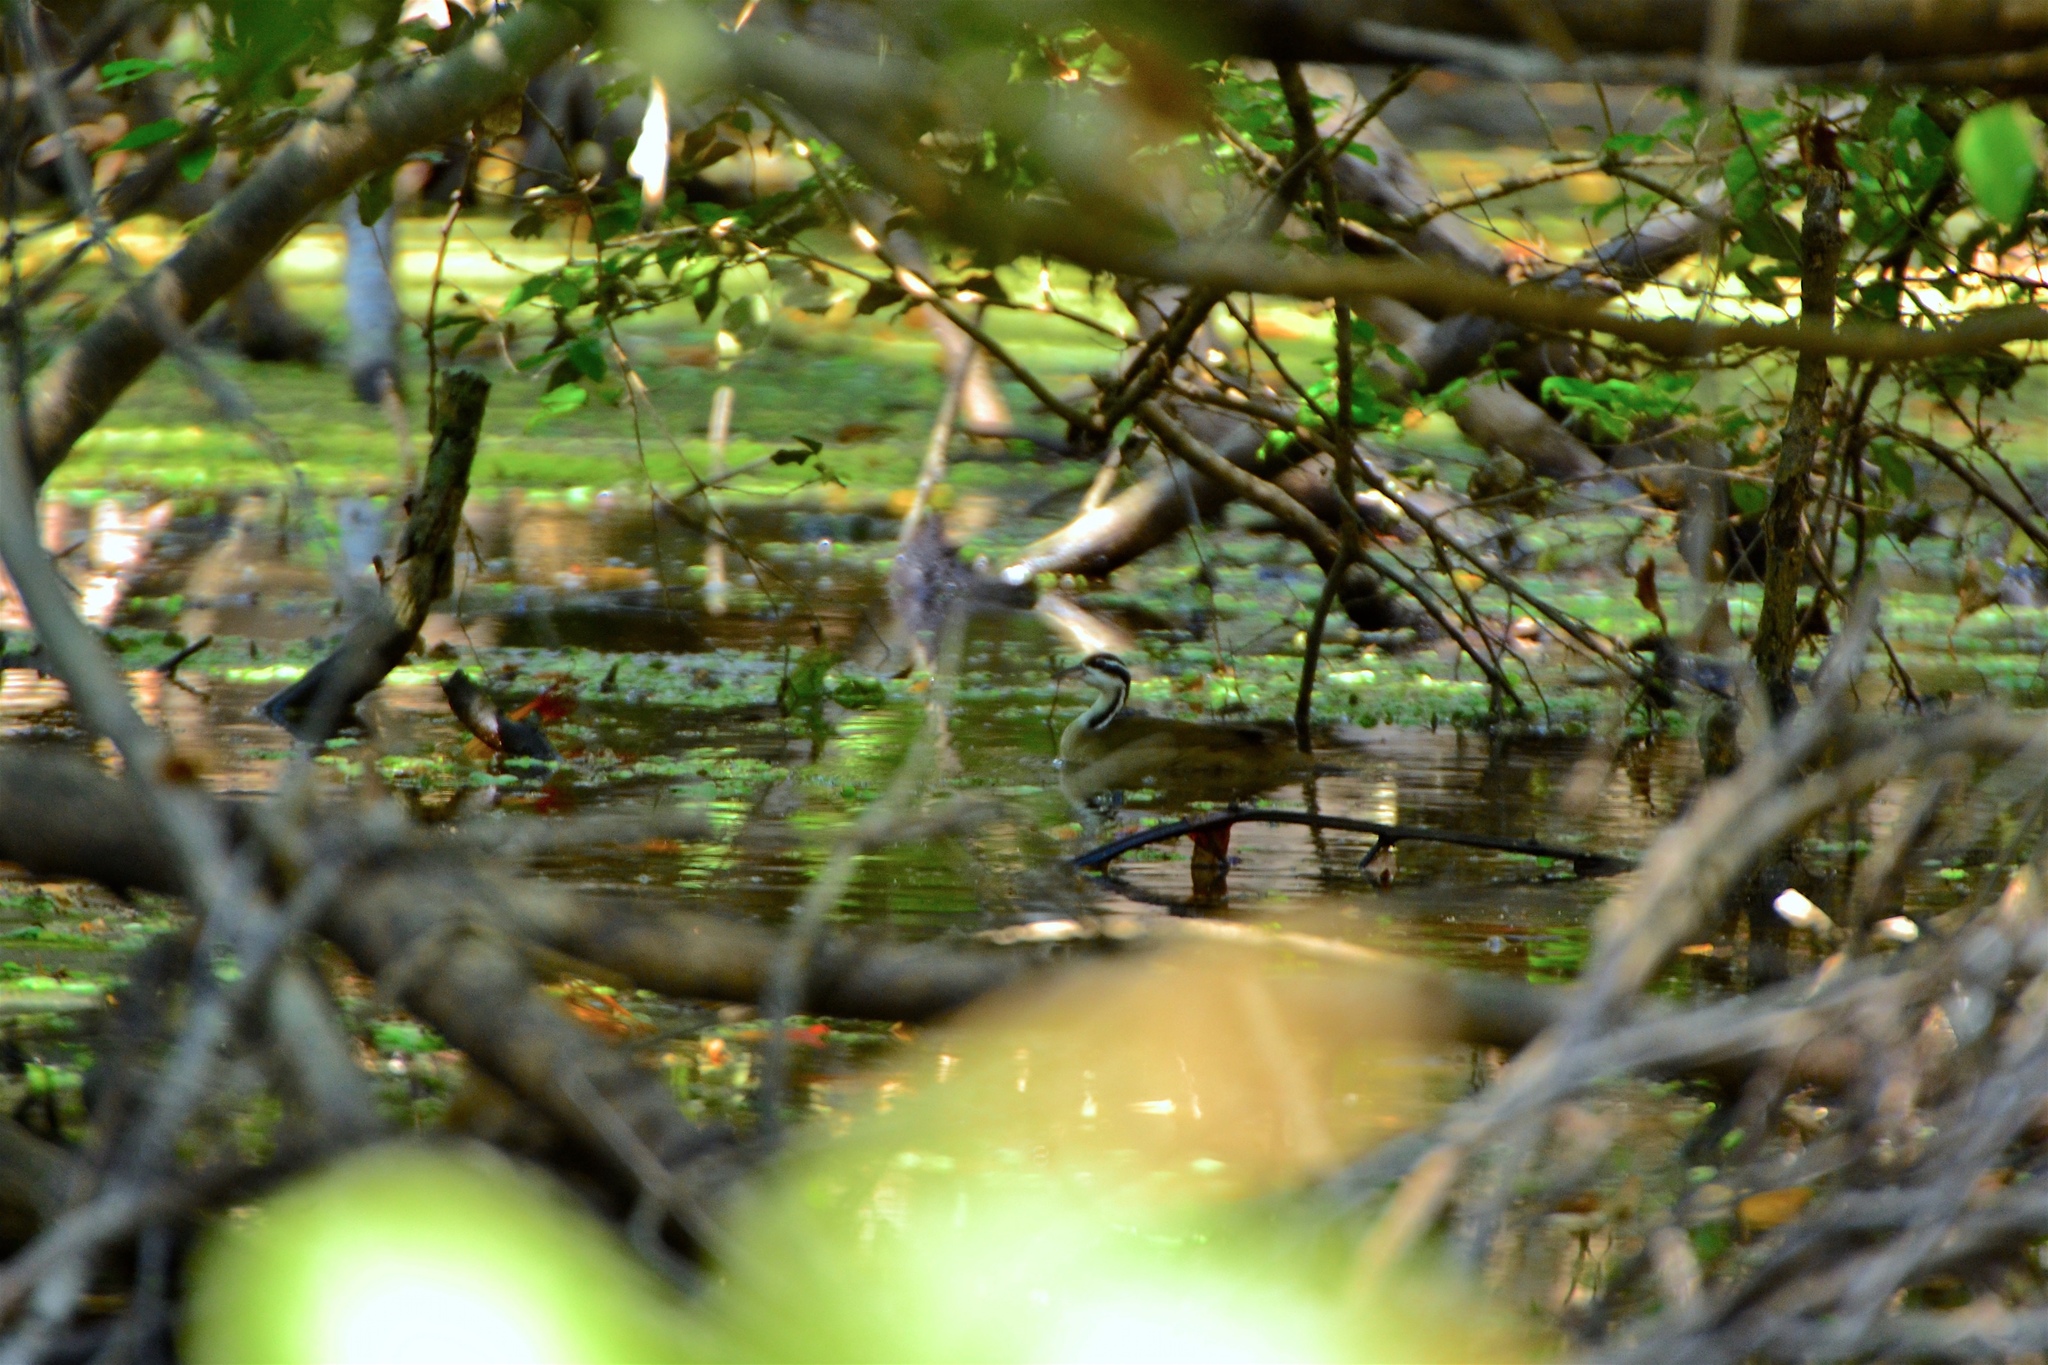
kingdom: Animalia
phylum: Chordata
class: Aves
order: Gruiformes
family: Heliornithidae
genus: Heliornis
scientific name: Heliornis fulica
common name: Sungrebe
